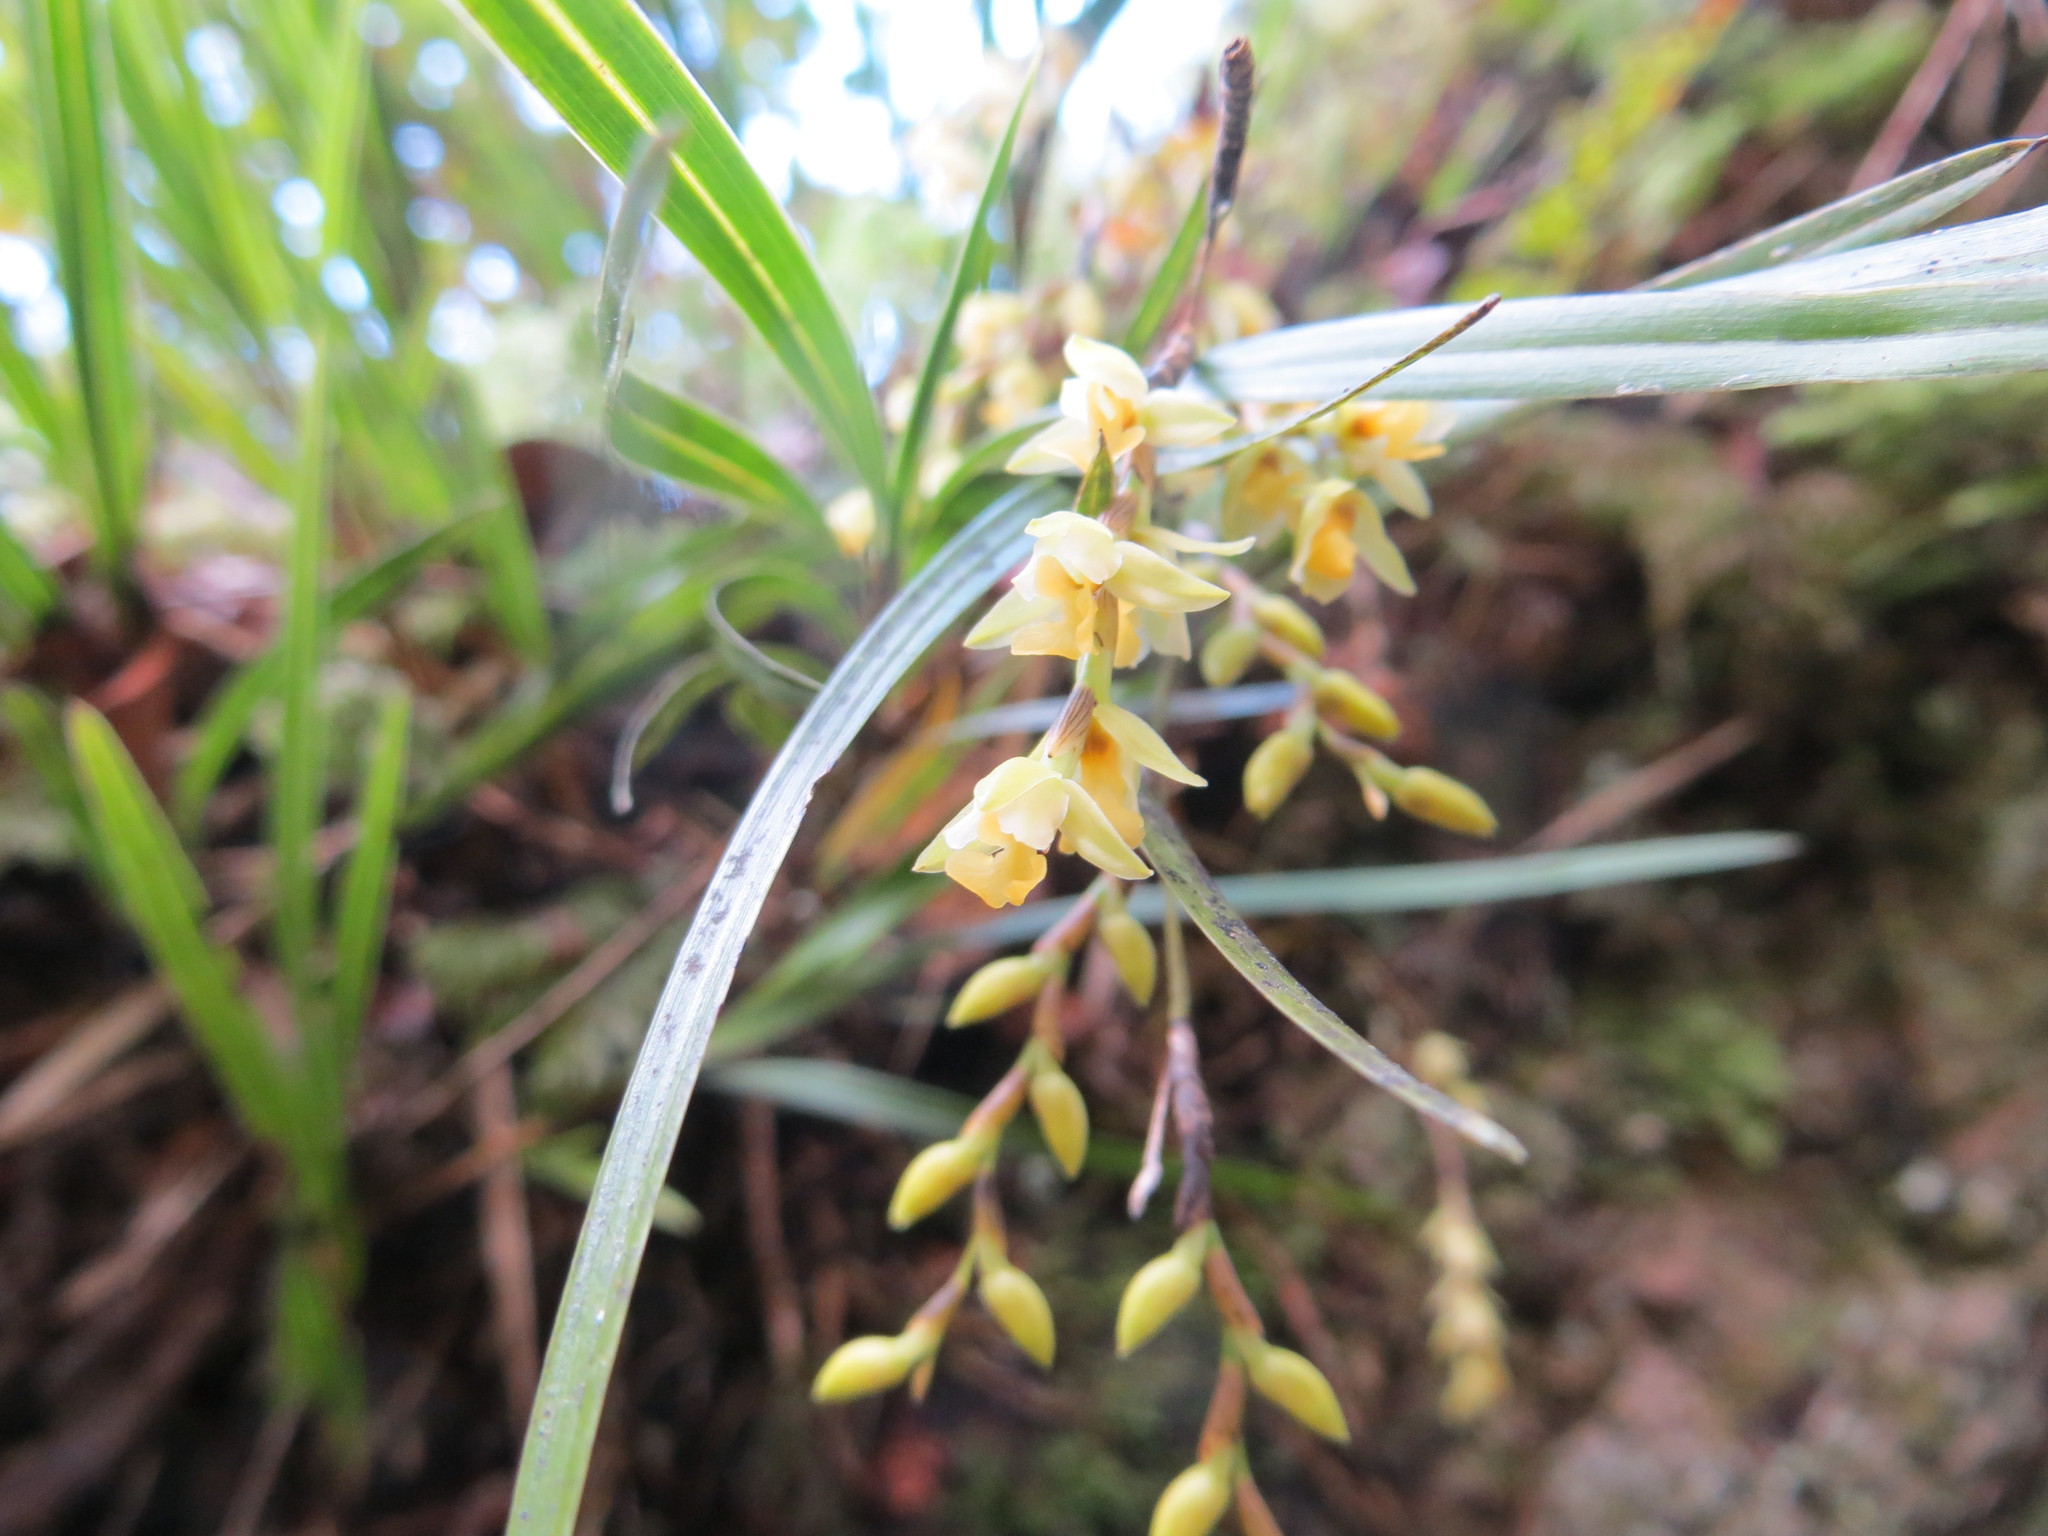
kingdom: Plantae
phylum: Tracheophyta
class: Liliopsida
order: Asparagales
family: Orchidaceae
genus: Earina
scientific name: Earina mucronata
